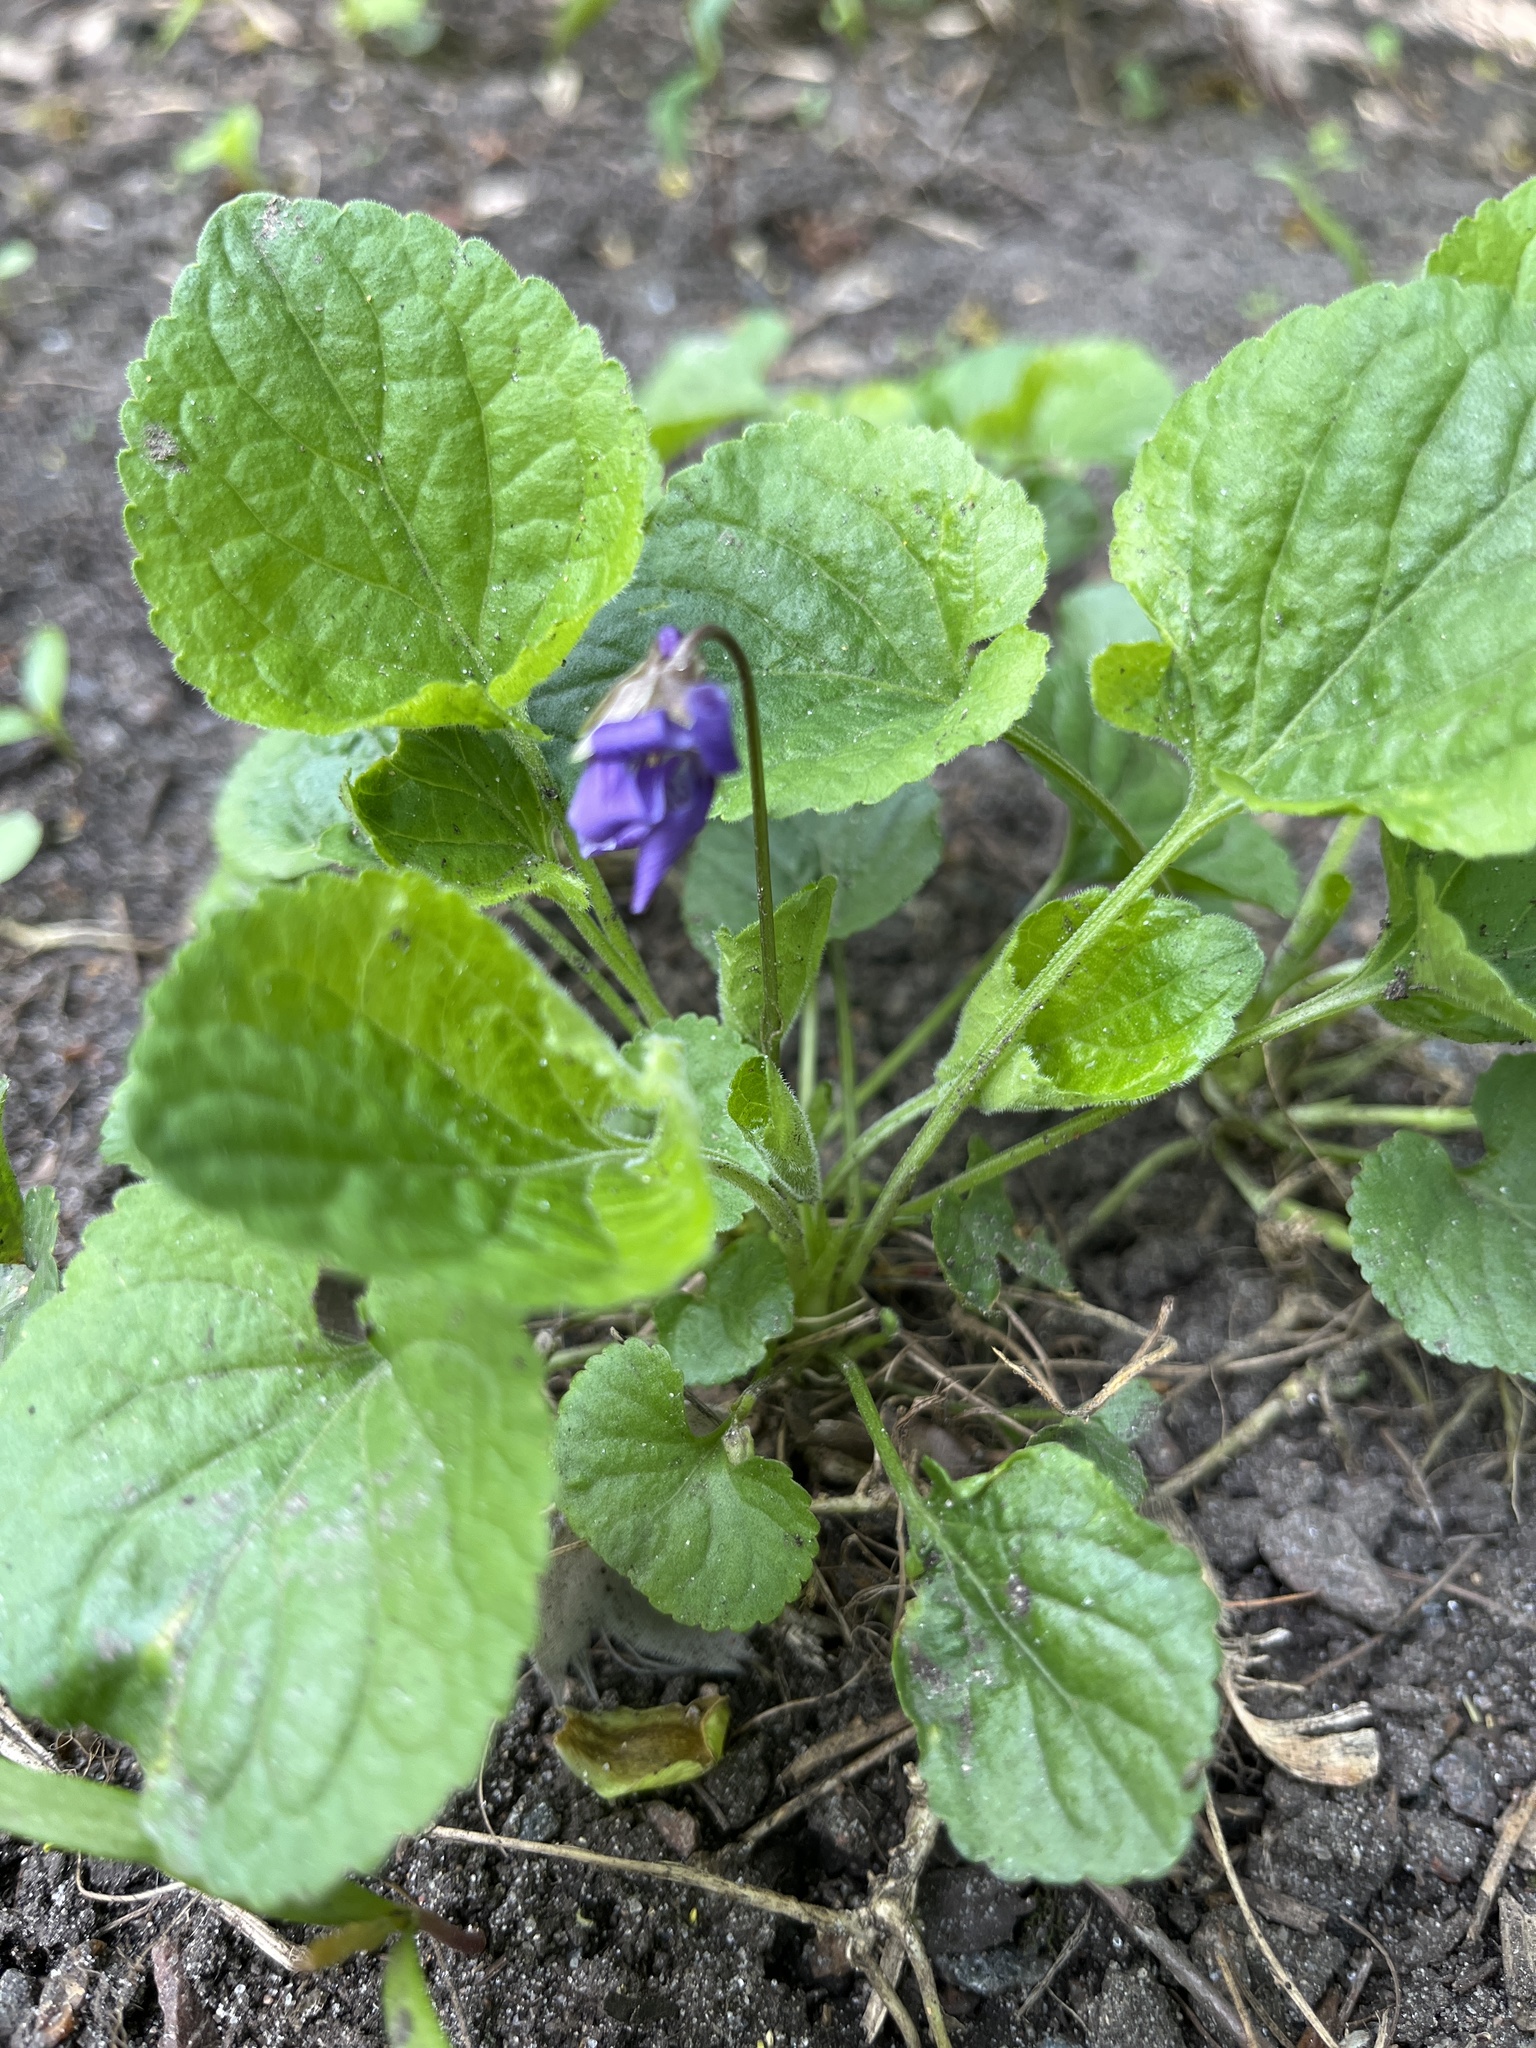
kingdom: Plantae
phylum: Tracheophyta
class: Magnoliopsida
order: Malpighiales
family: Violaceae
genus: Viola
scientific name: Viola odorata
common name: Sweet violet
